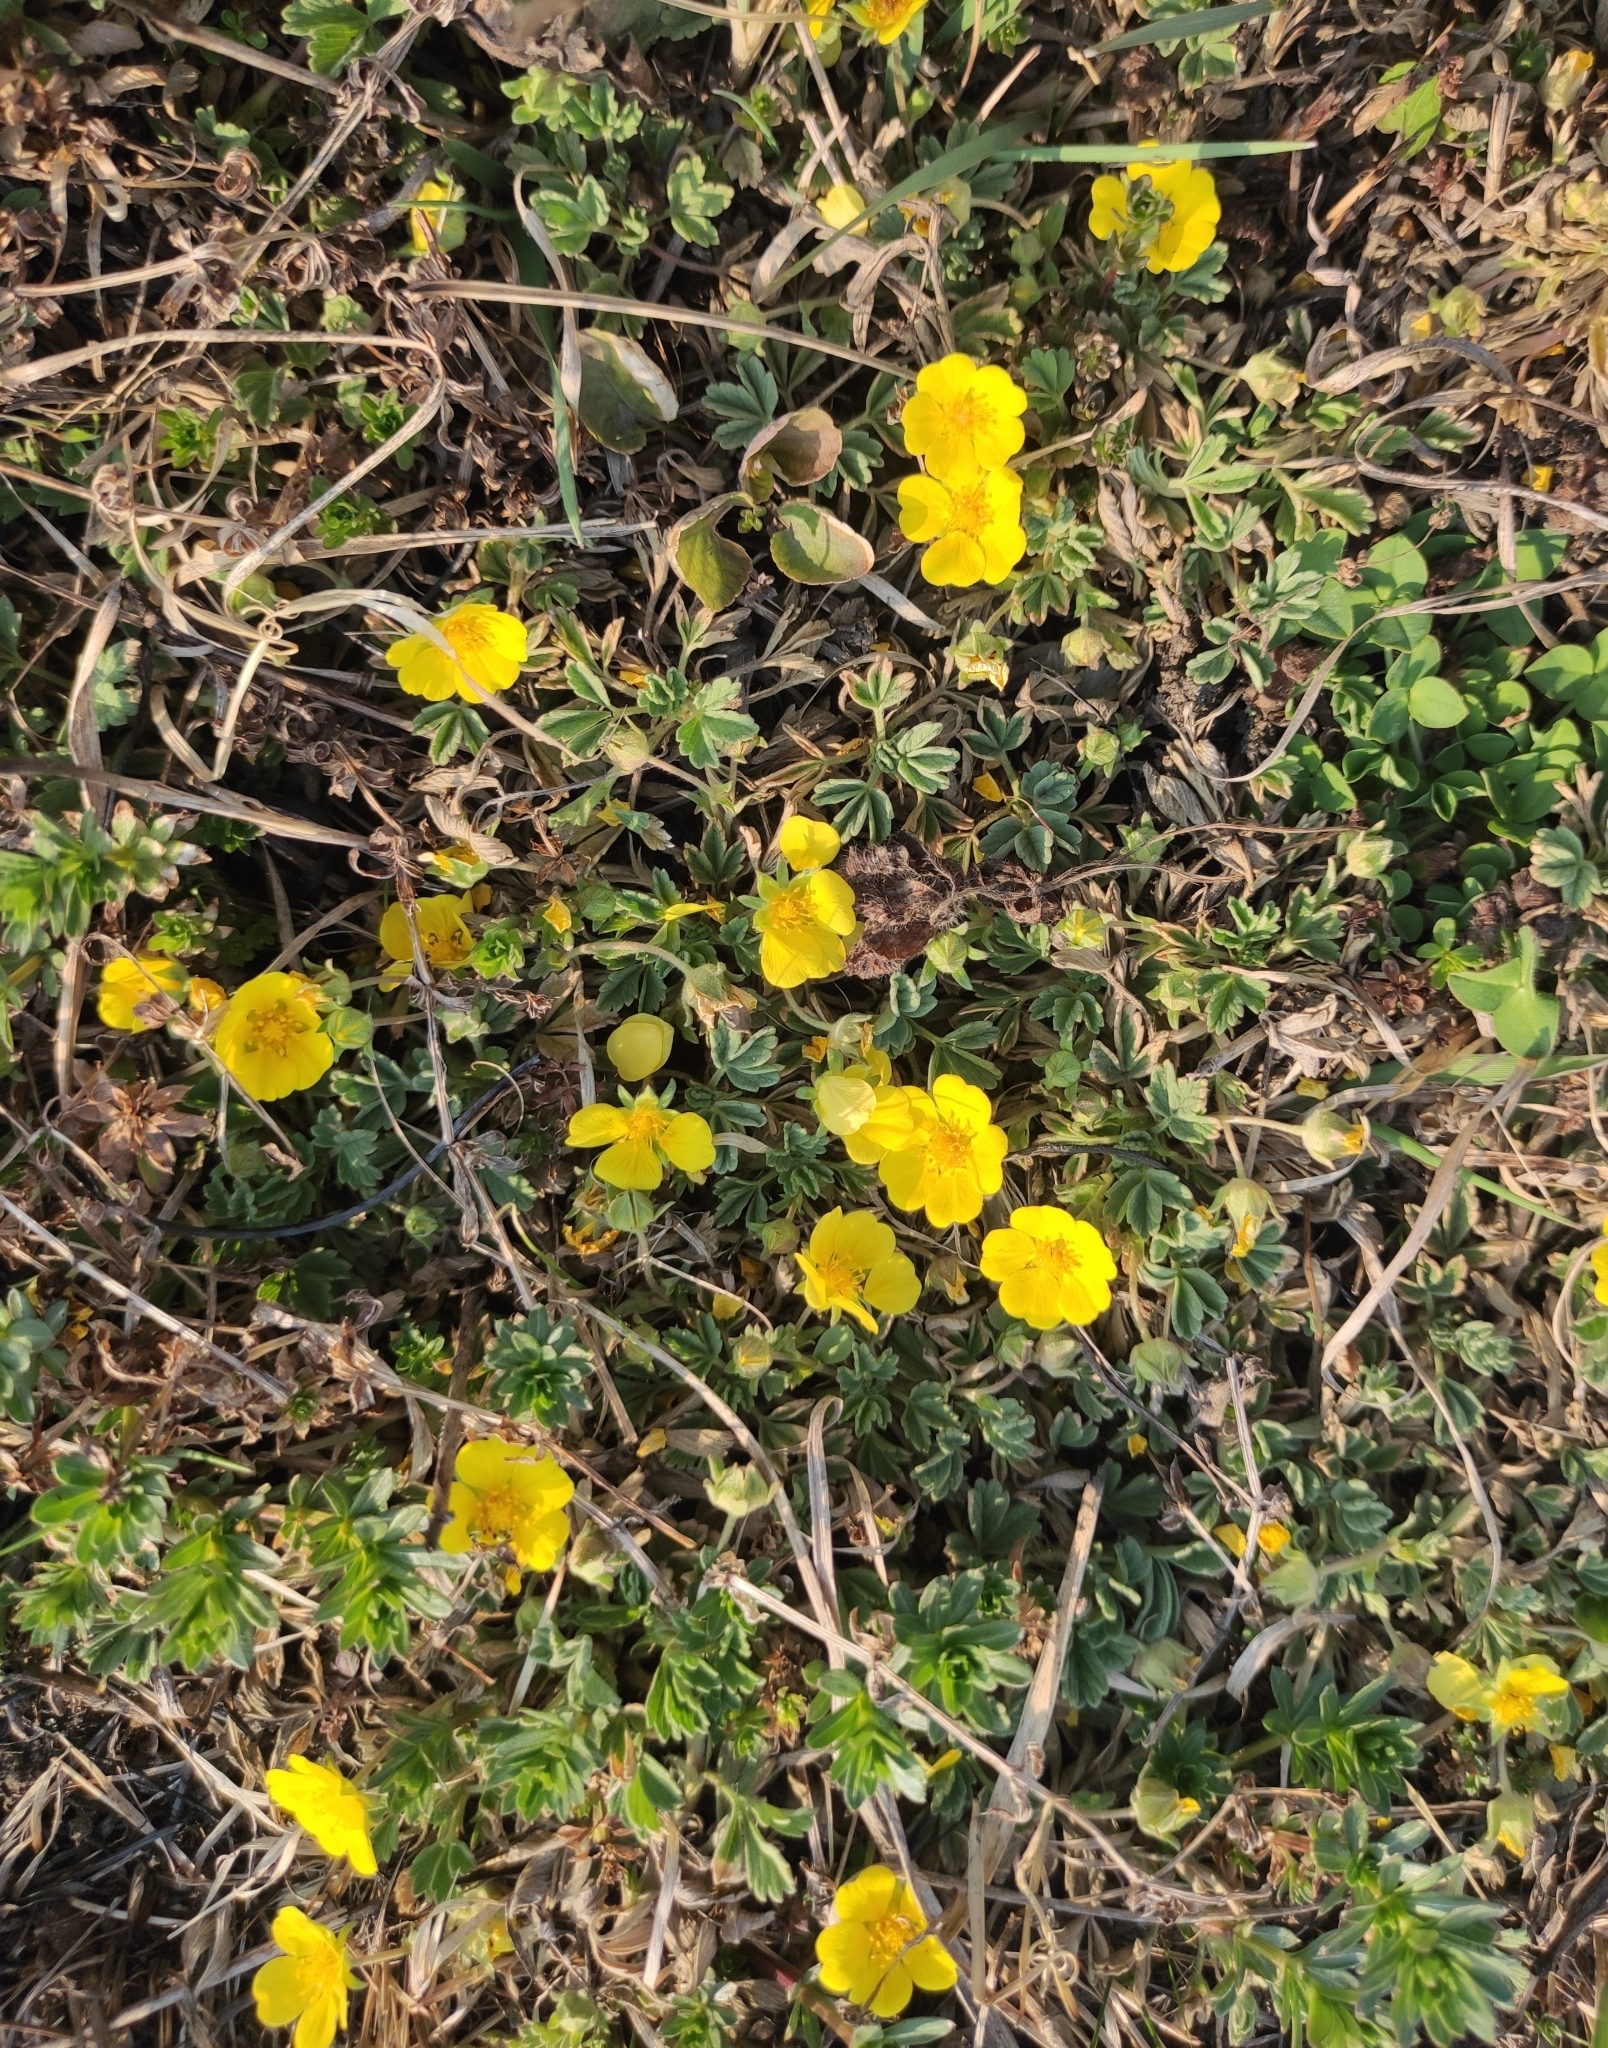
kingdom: Plantae
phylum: Tracheophyta
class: Magnoliopsida
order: Rosales
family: Rosaceae
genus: Potentilla
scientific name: Potentilla acaulis
